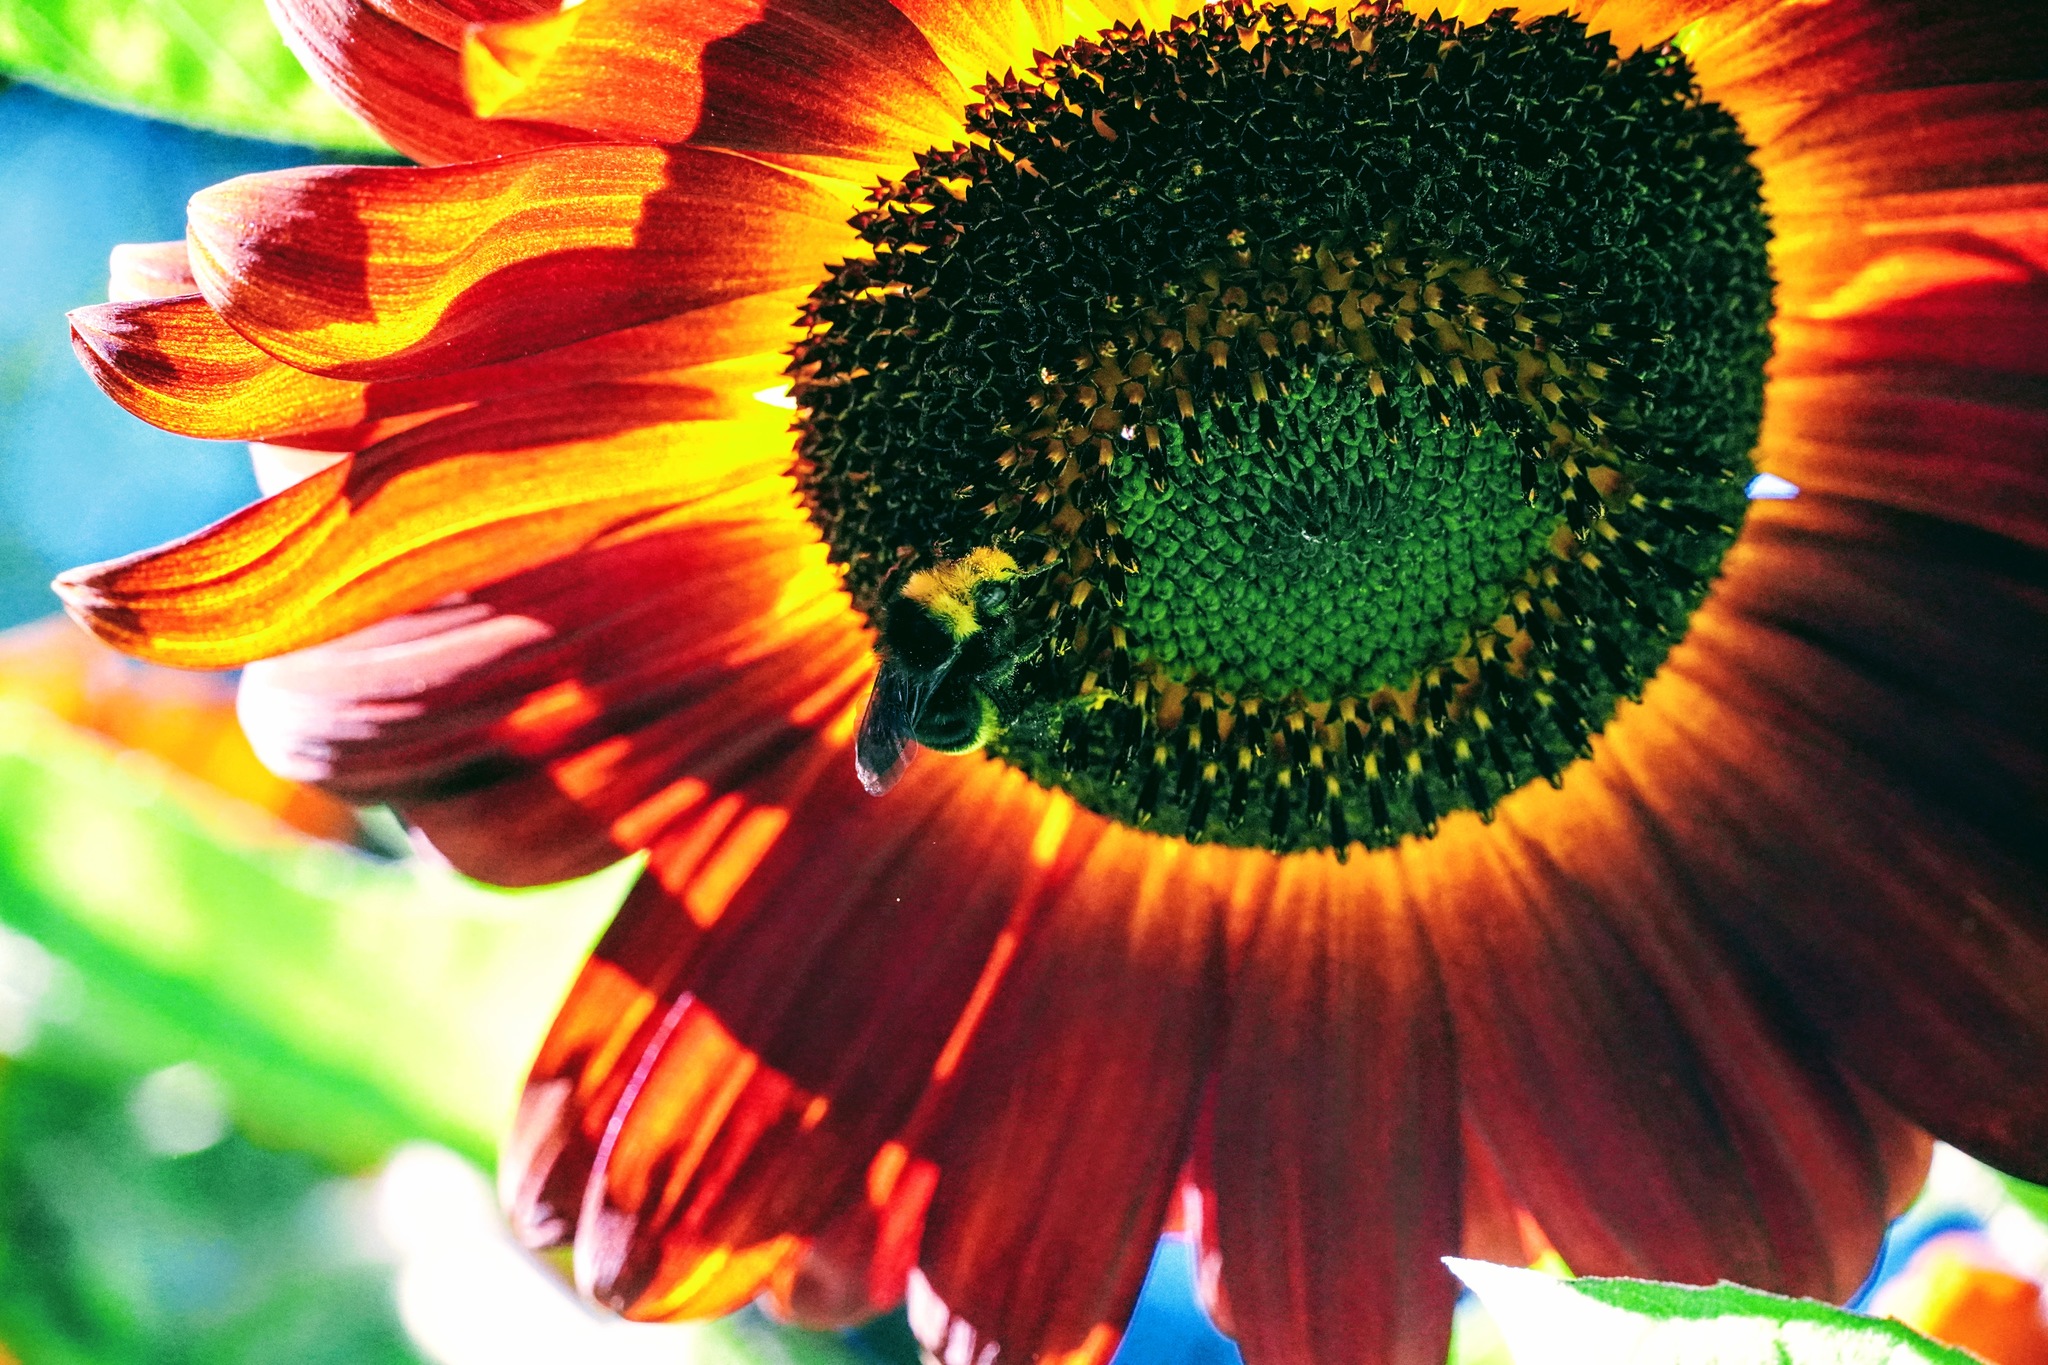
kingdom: Animalia
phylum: Arthropoda
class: Insecta
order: Hymenoptera
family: Apidae
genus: Bombus
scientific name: Bombus vosnesenskii
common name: Vosnesensky bumble bee
